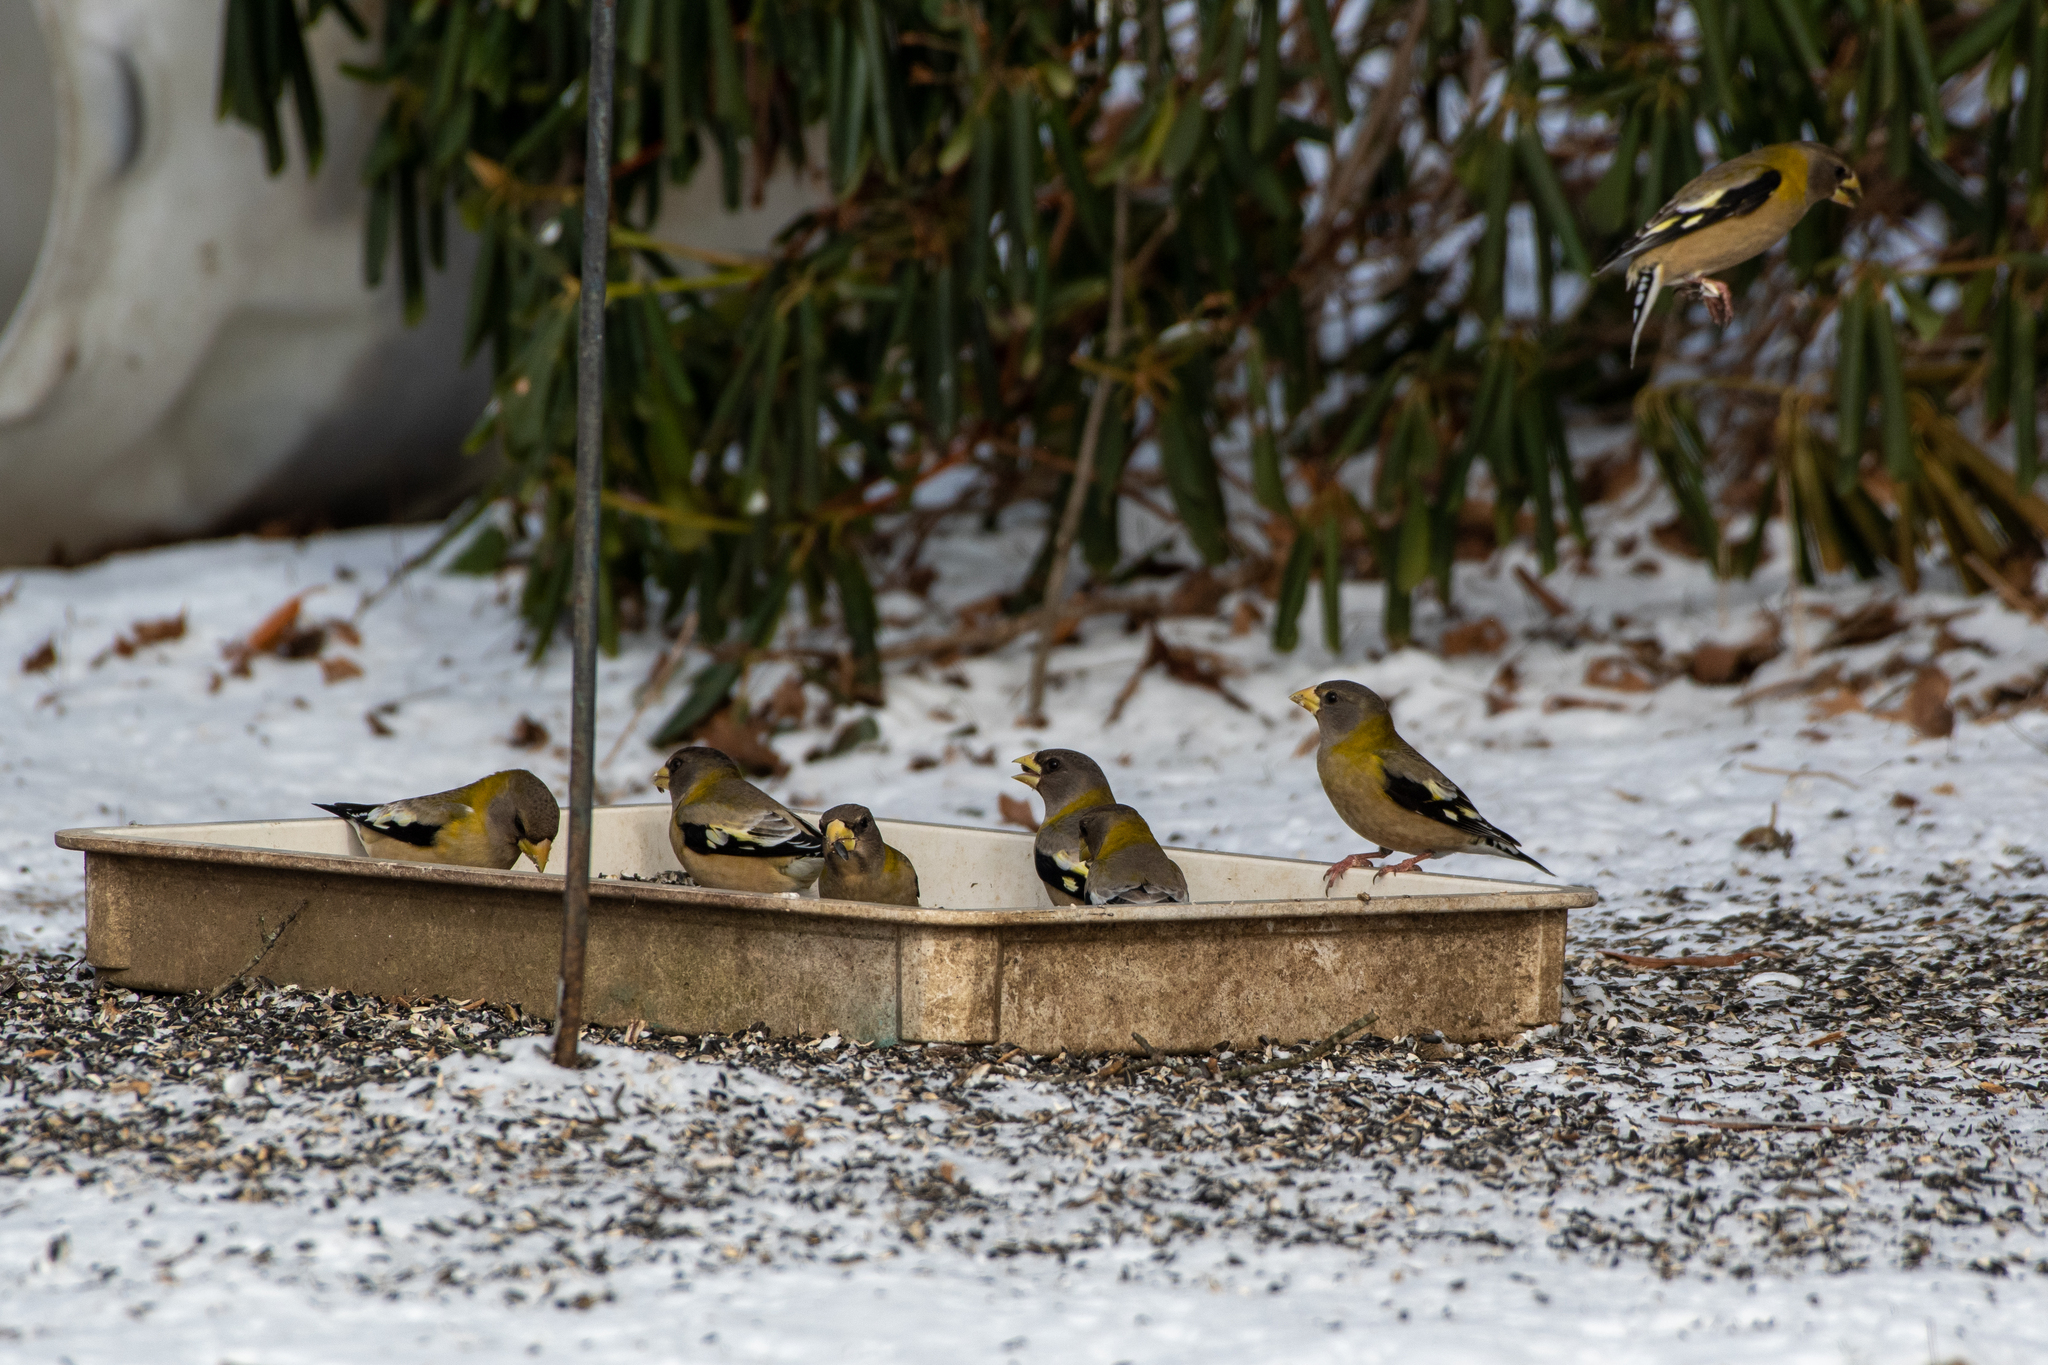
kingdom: Animalia
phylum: Chordata
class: Aves
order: Passeriformes
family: Fringillidae
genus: Hesperiphona
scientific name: Hesperiphona vespertina
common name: Evening grosbeak
